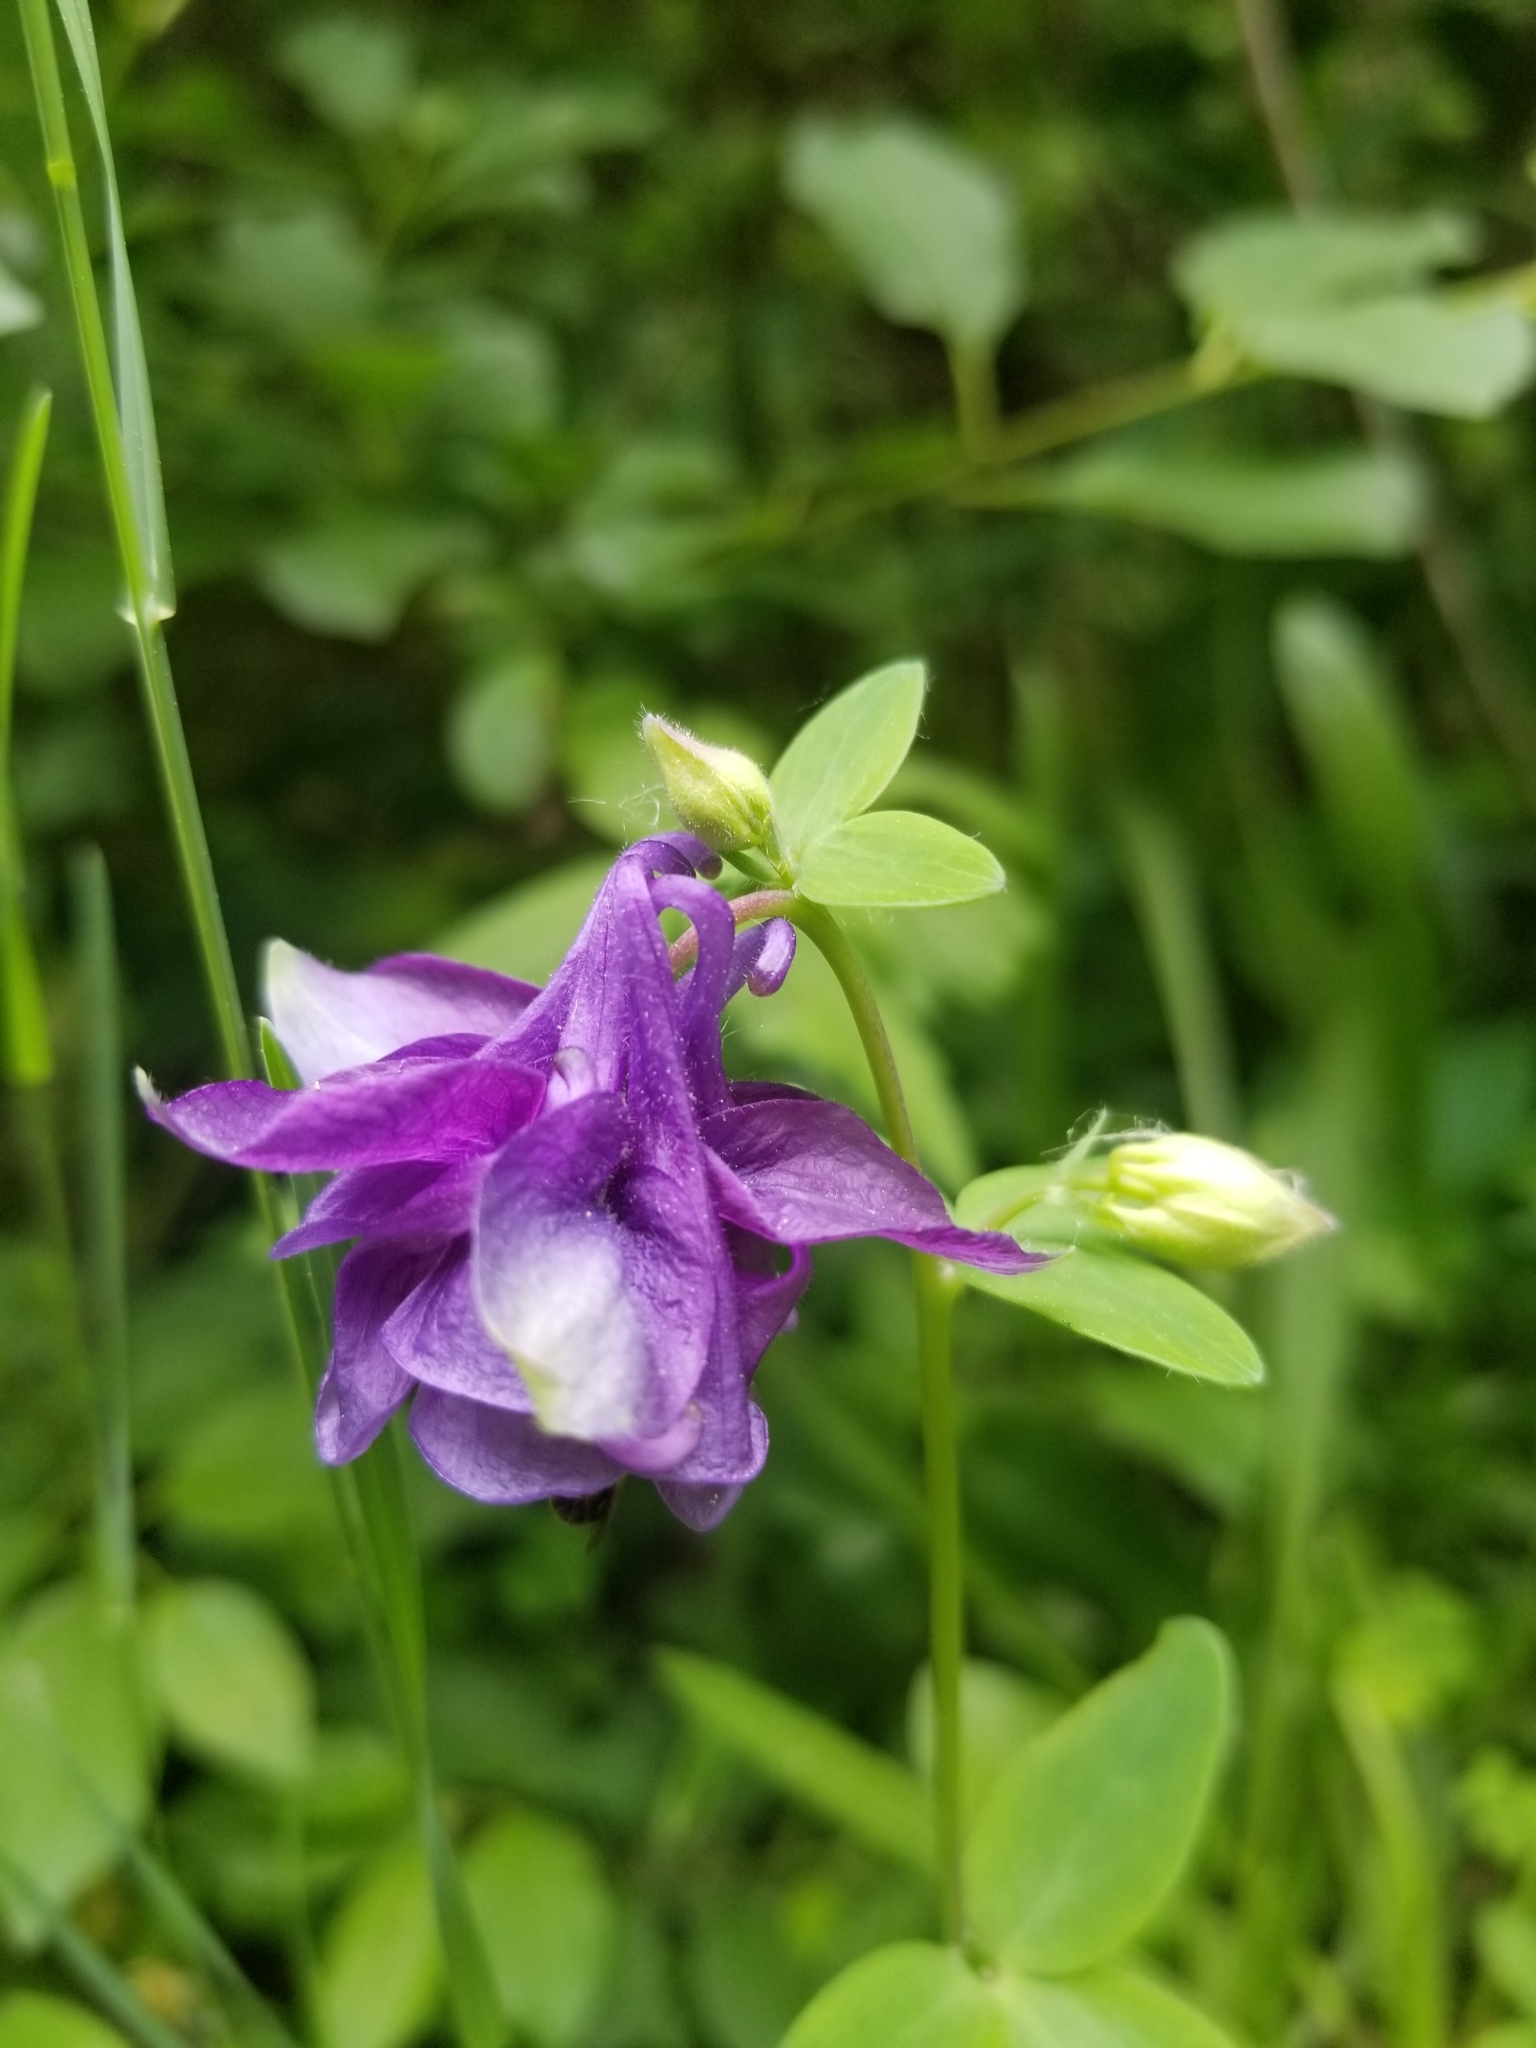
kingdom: Plantae
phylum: Tracheophyta
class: Magnoliopsida
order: Ranunculales
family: Ranunculaceae
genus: Aquilegia
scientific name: Aquilegia vulgaris
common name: Columbine
